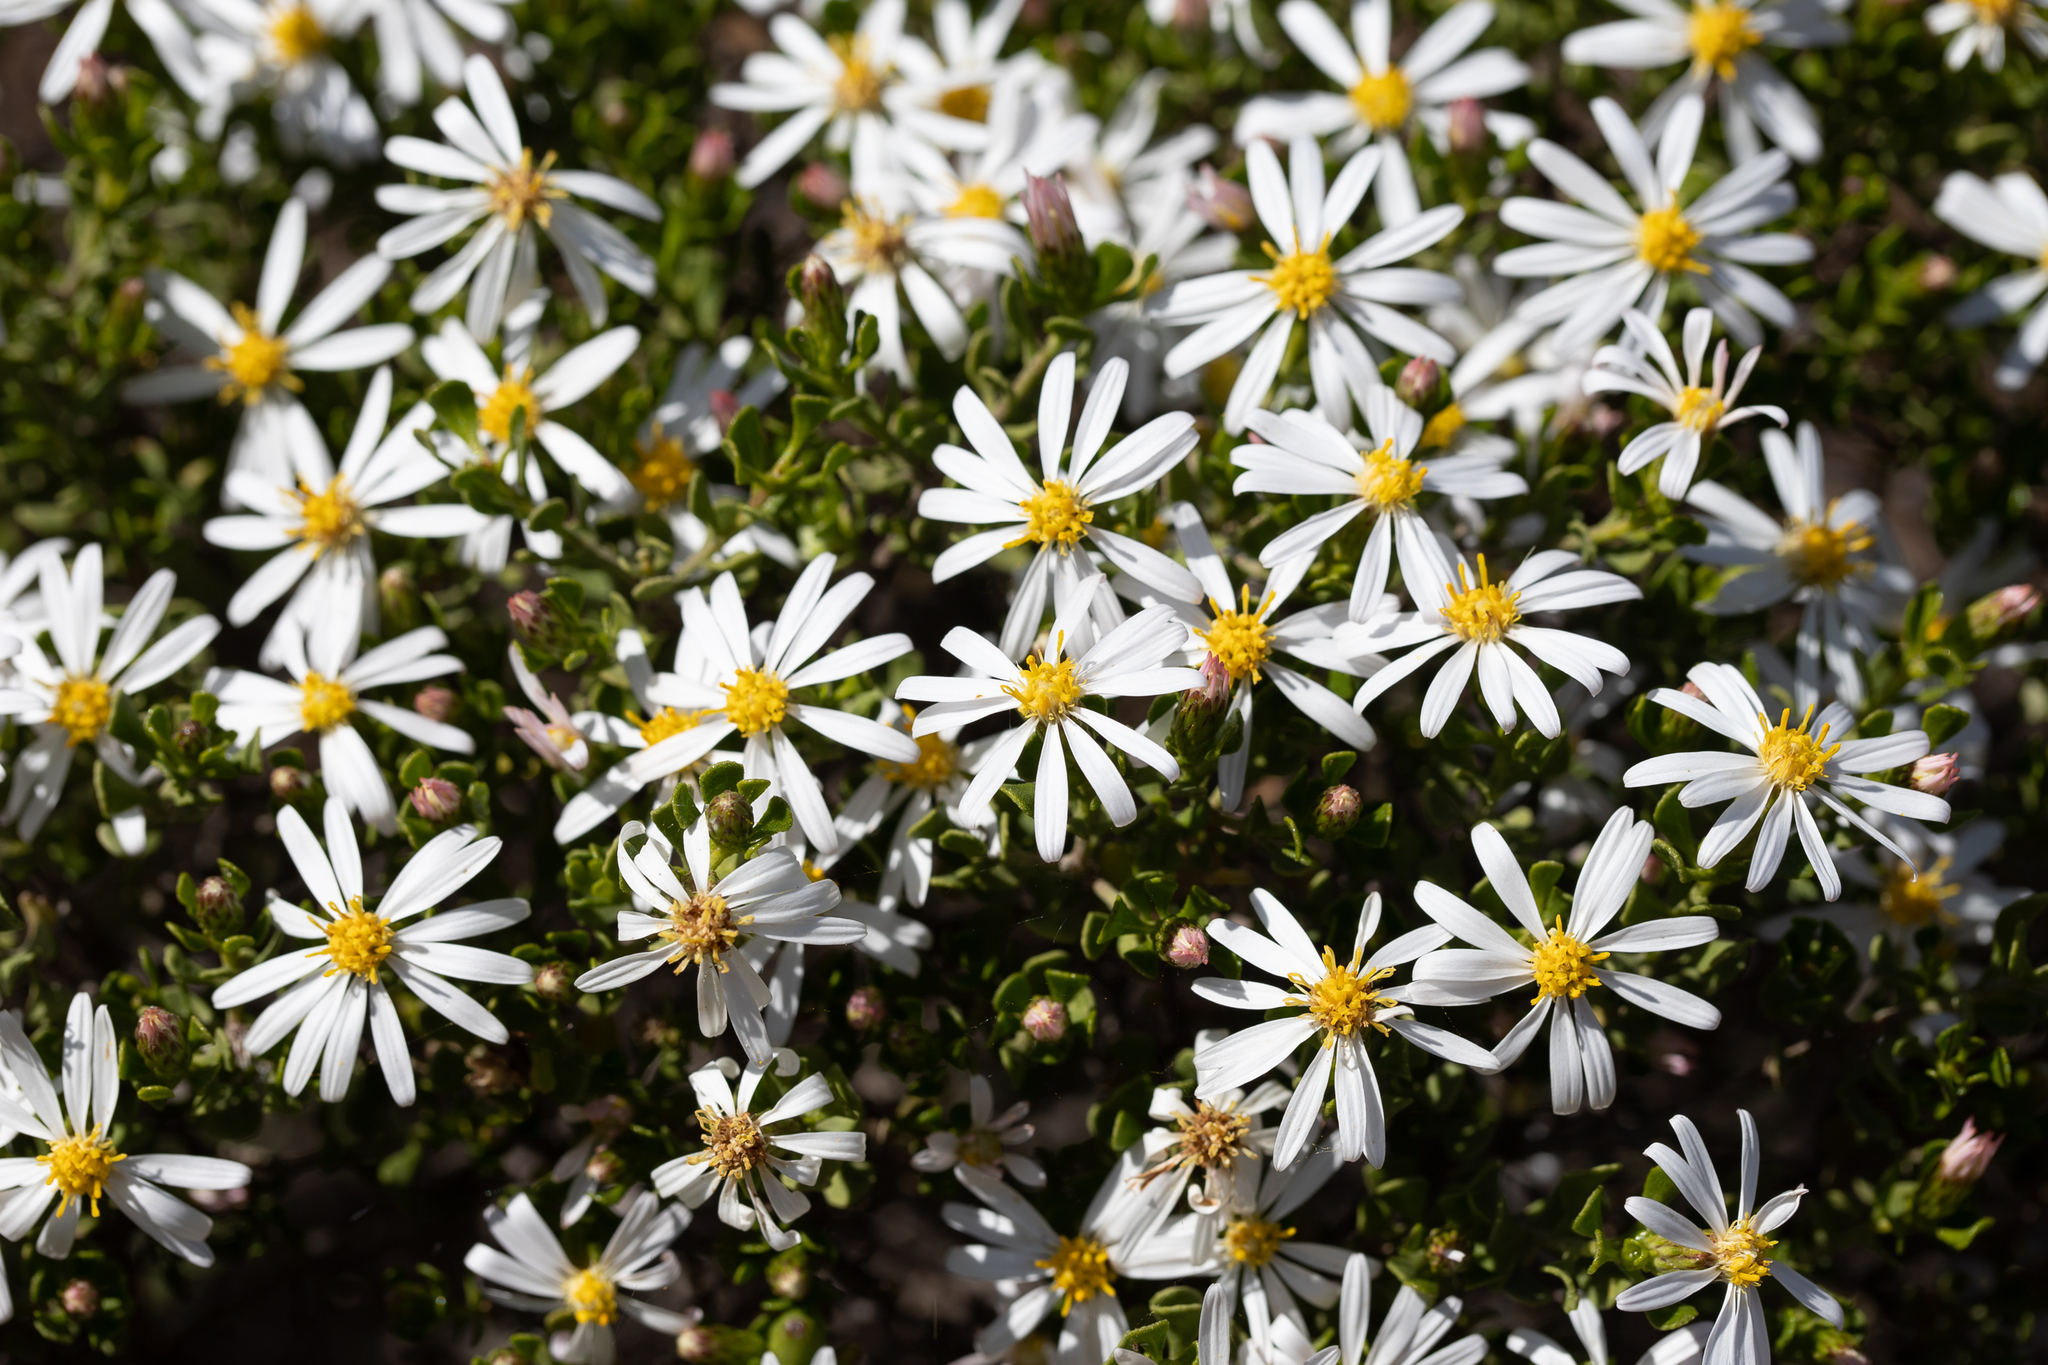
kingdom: Plantae
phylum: Tracheophyta
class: Magnoliopsida
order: Asterales
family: Asteraceae
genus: Walsholaria
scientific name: Walsholaria muelleri
